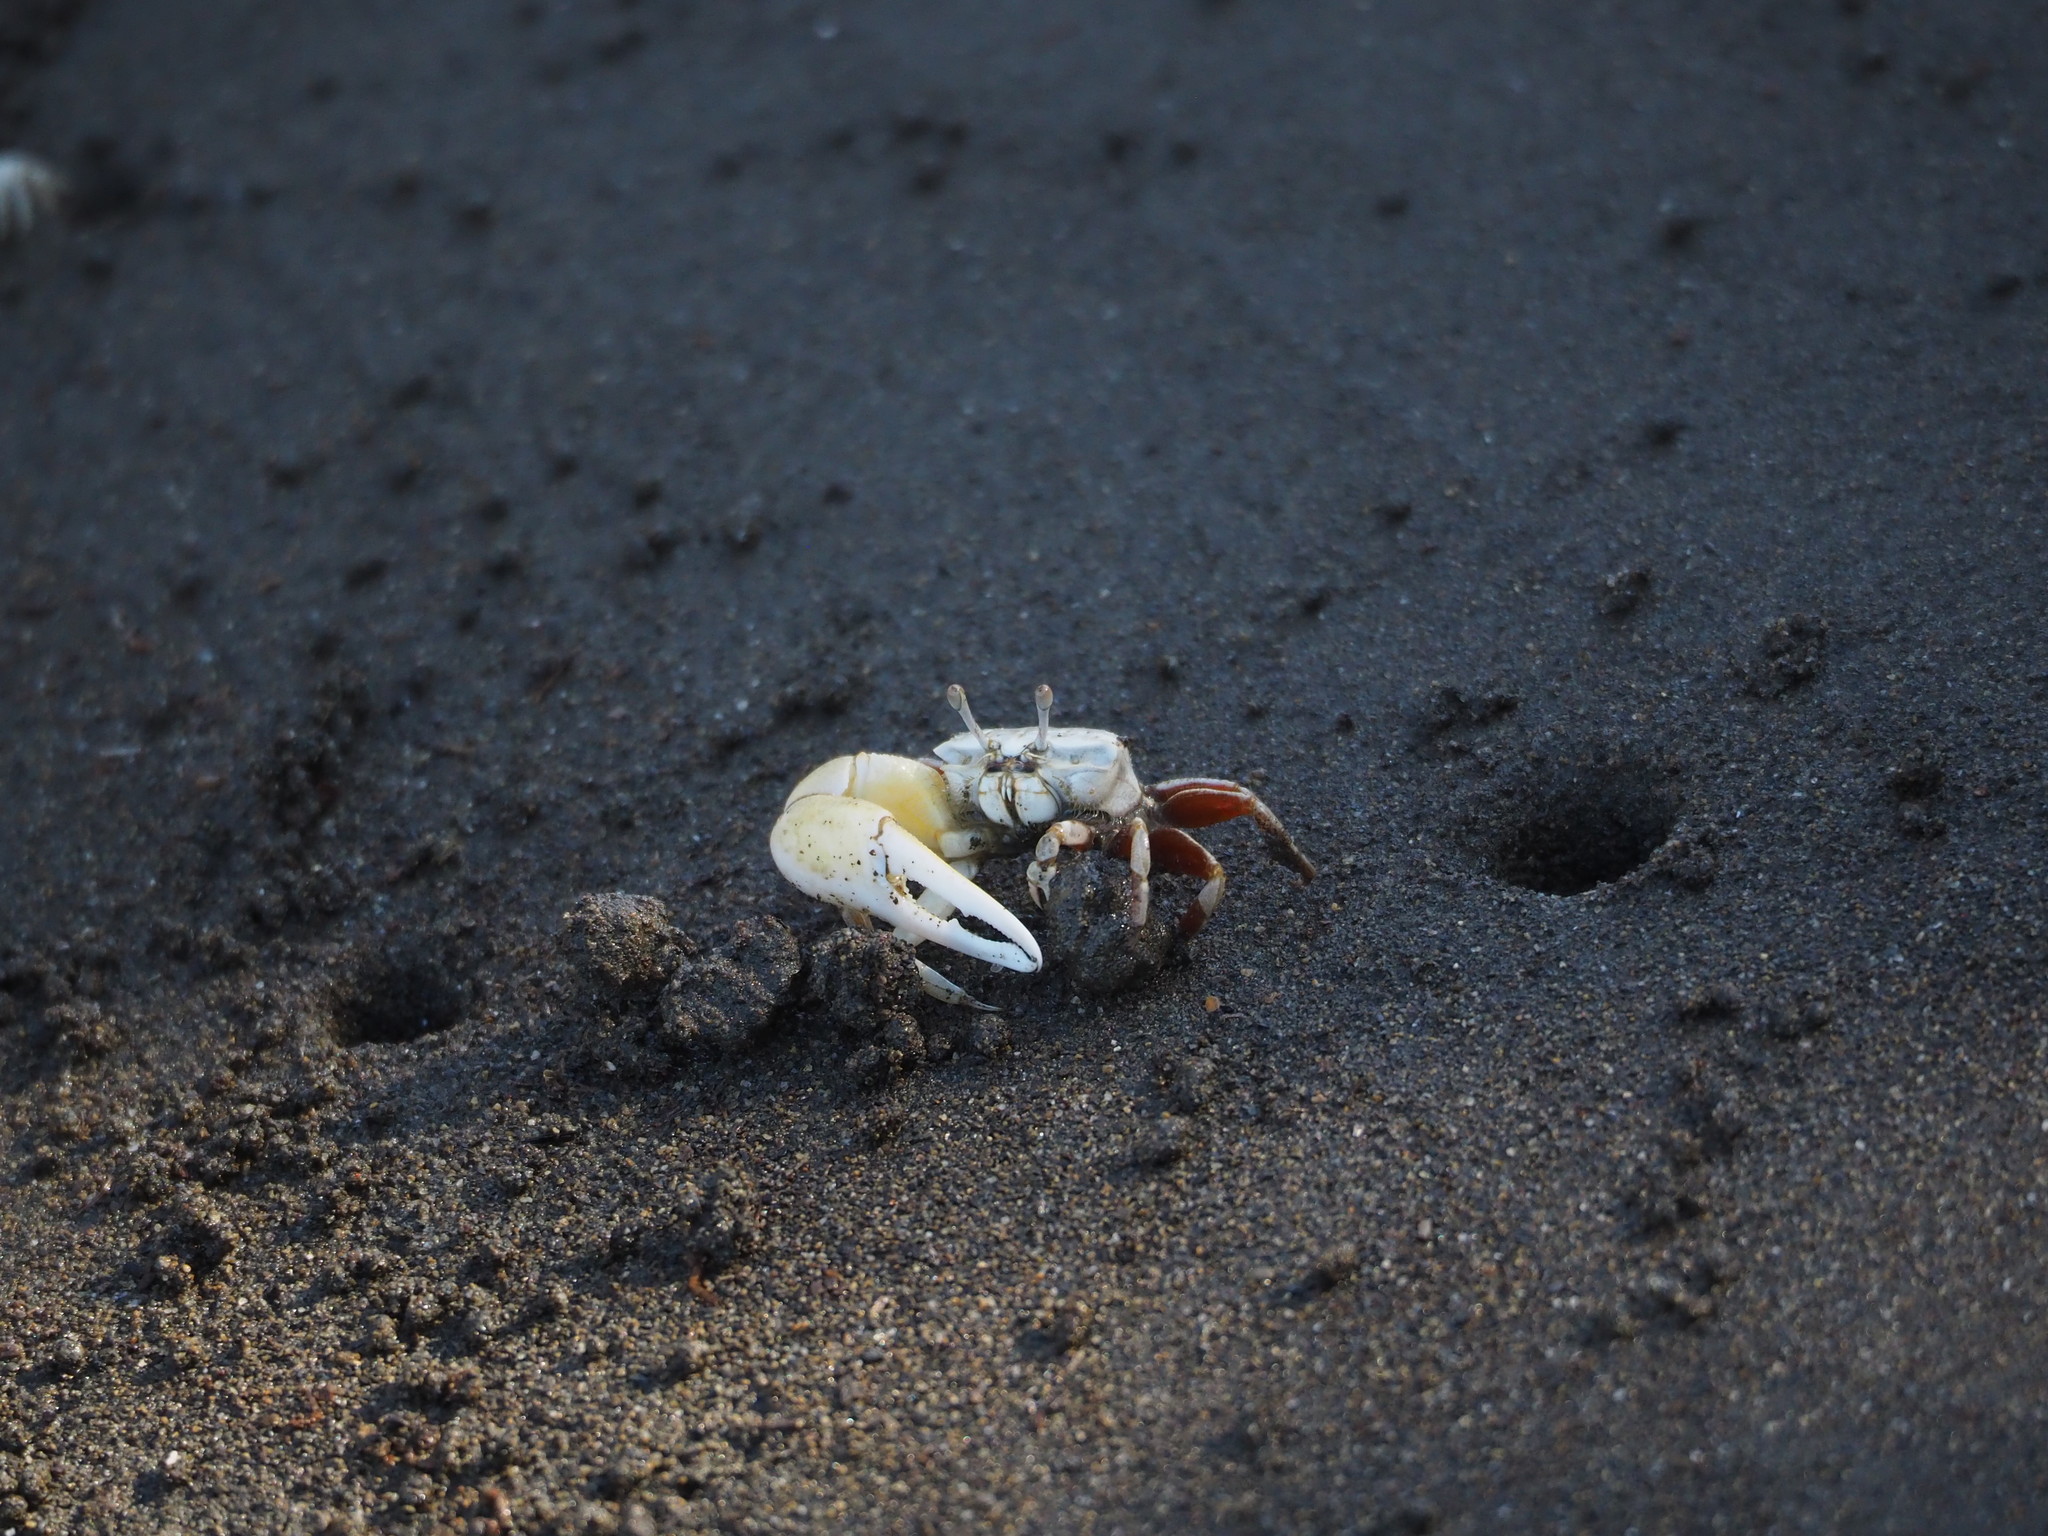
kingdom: Animalia
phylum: Arthropoda
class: Malacostraca
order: Decapoda
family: Ocypodidae
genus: Austruca
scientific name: Austruca lactea
